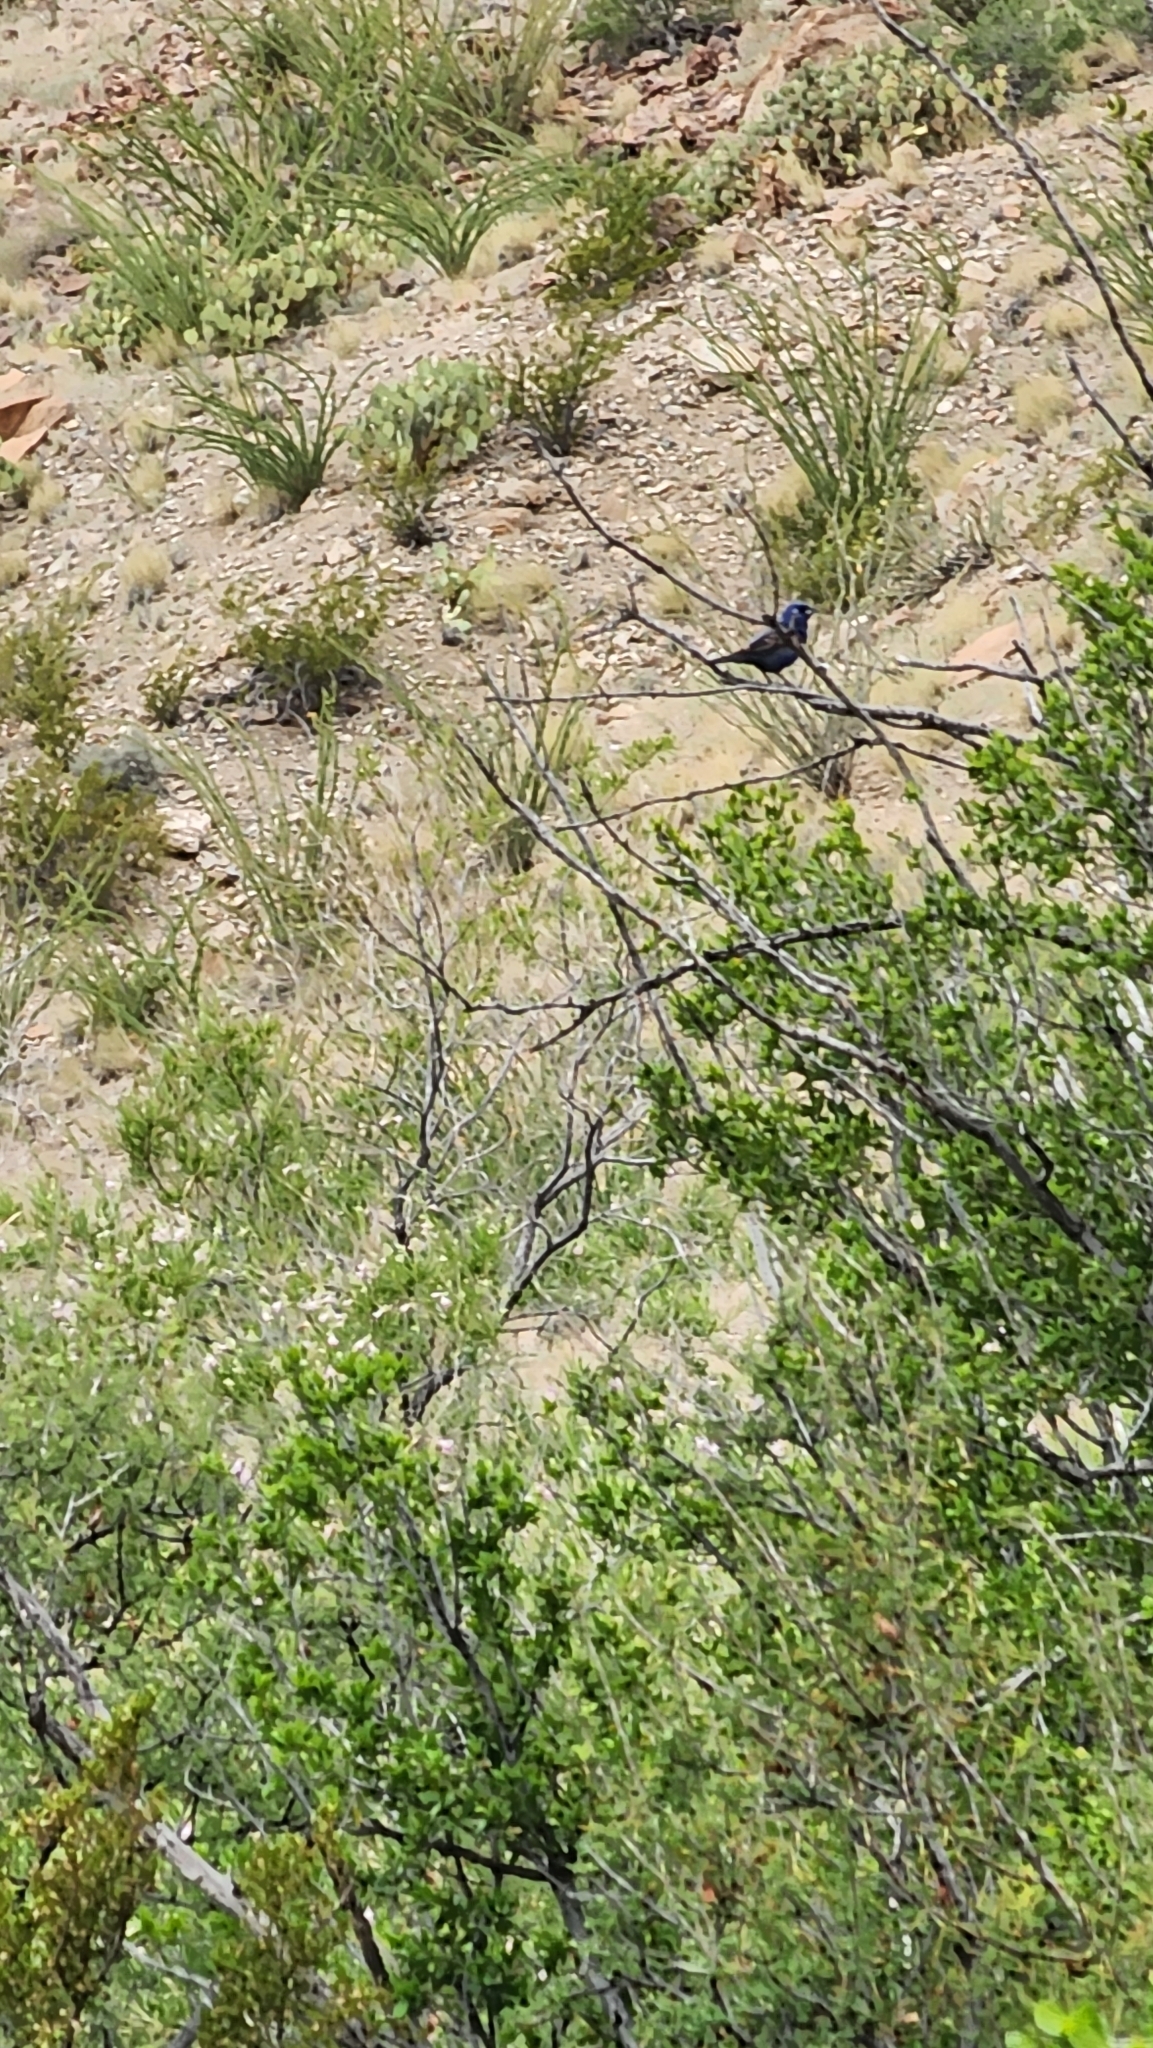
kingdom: Animalia
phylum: Chordata
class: Aves
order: Passeriformes
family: Cardinalidae
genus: Passerina
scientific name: Passerina caerulea
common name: Blue grosbeak
